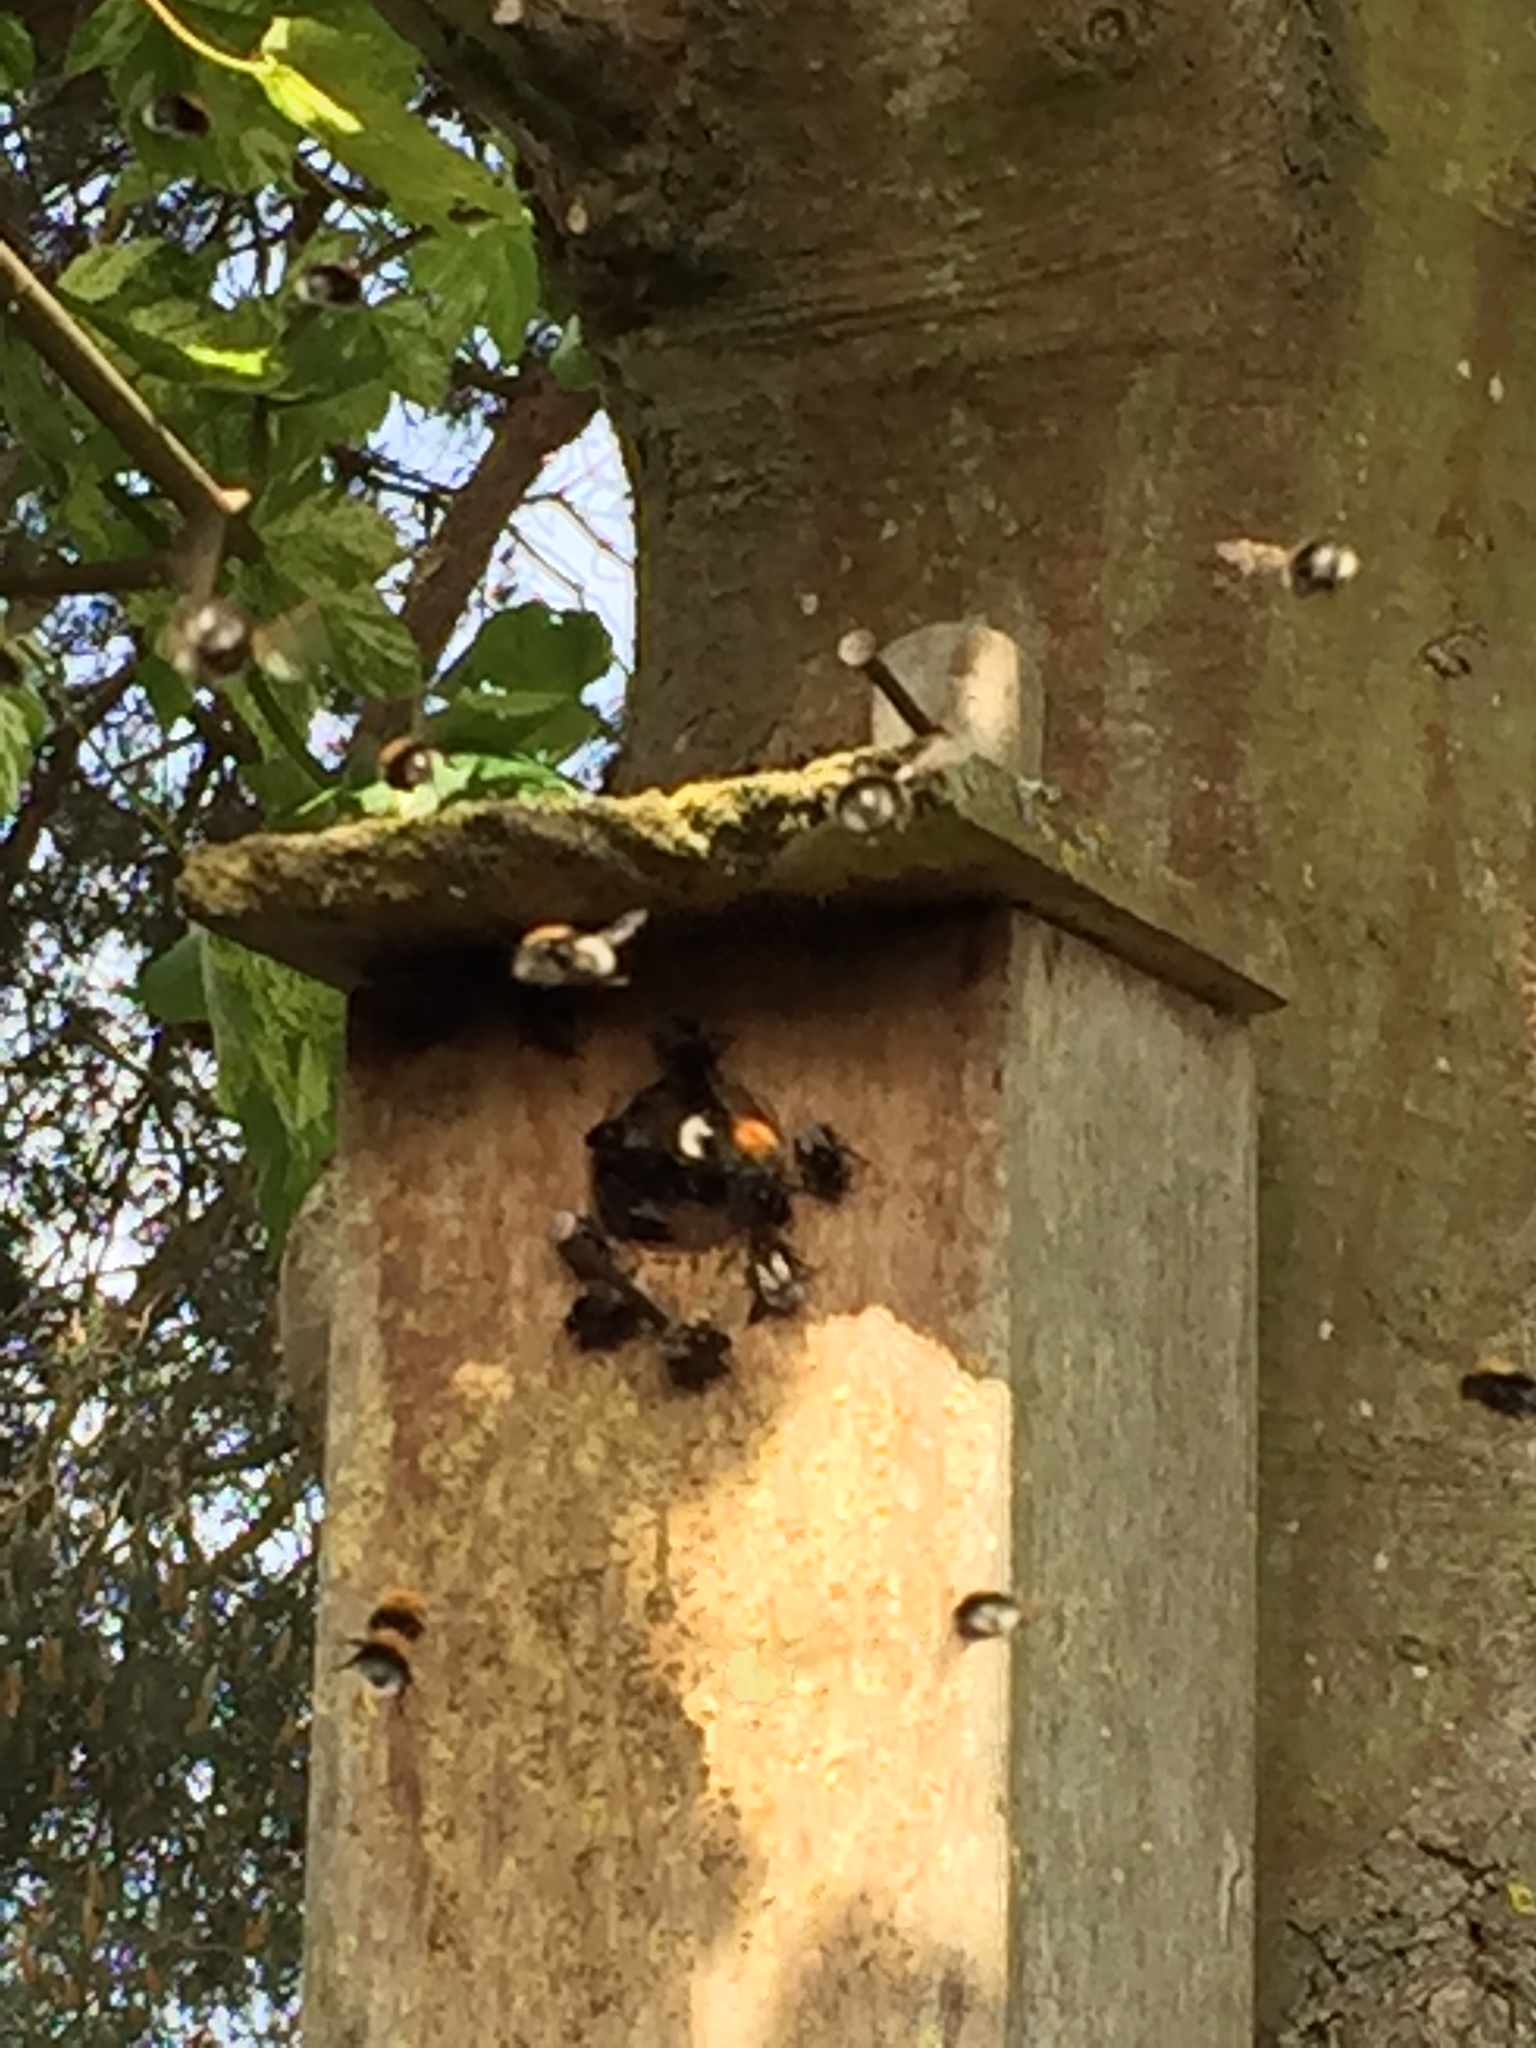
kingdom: Animalia
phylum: Arthropoda
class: Insecta
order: Hymenoptera
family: Apidae
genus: Bombus
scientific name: Bombus hypnorum
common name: New garden bumblebee
